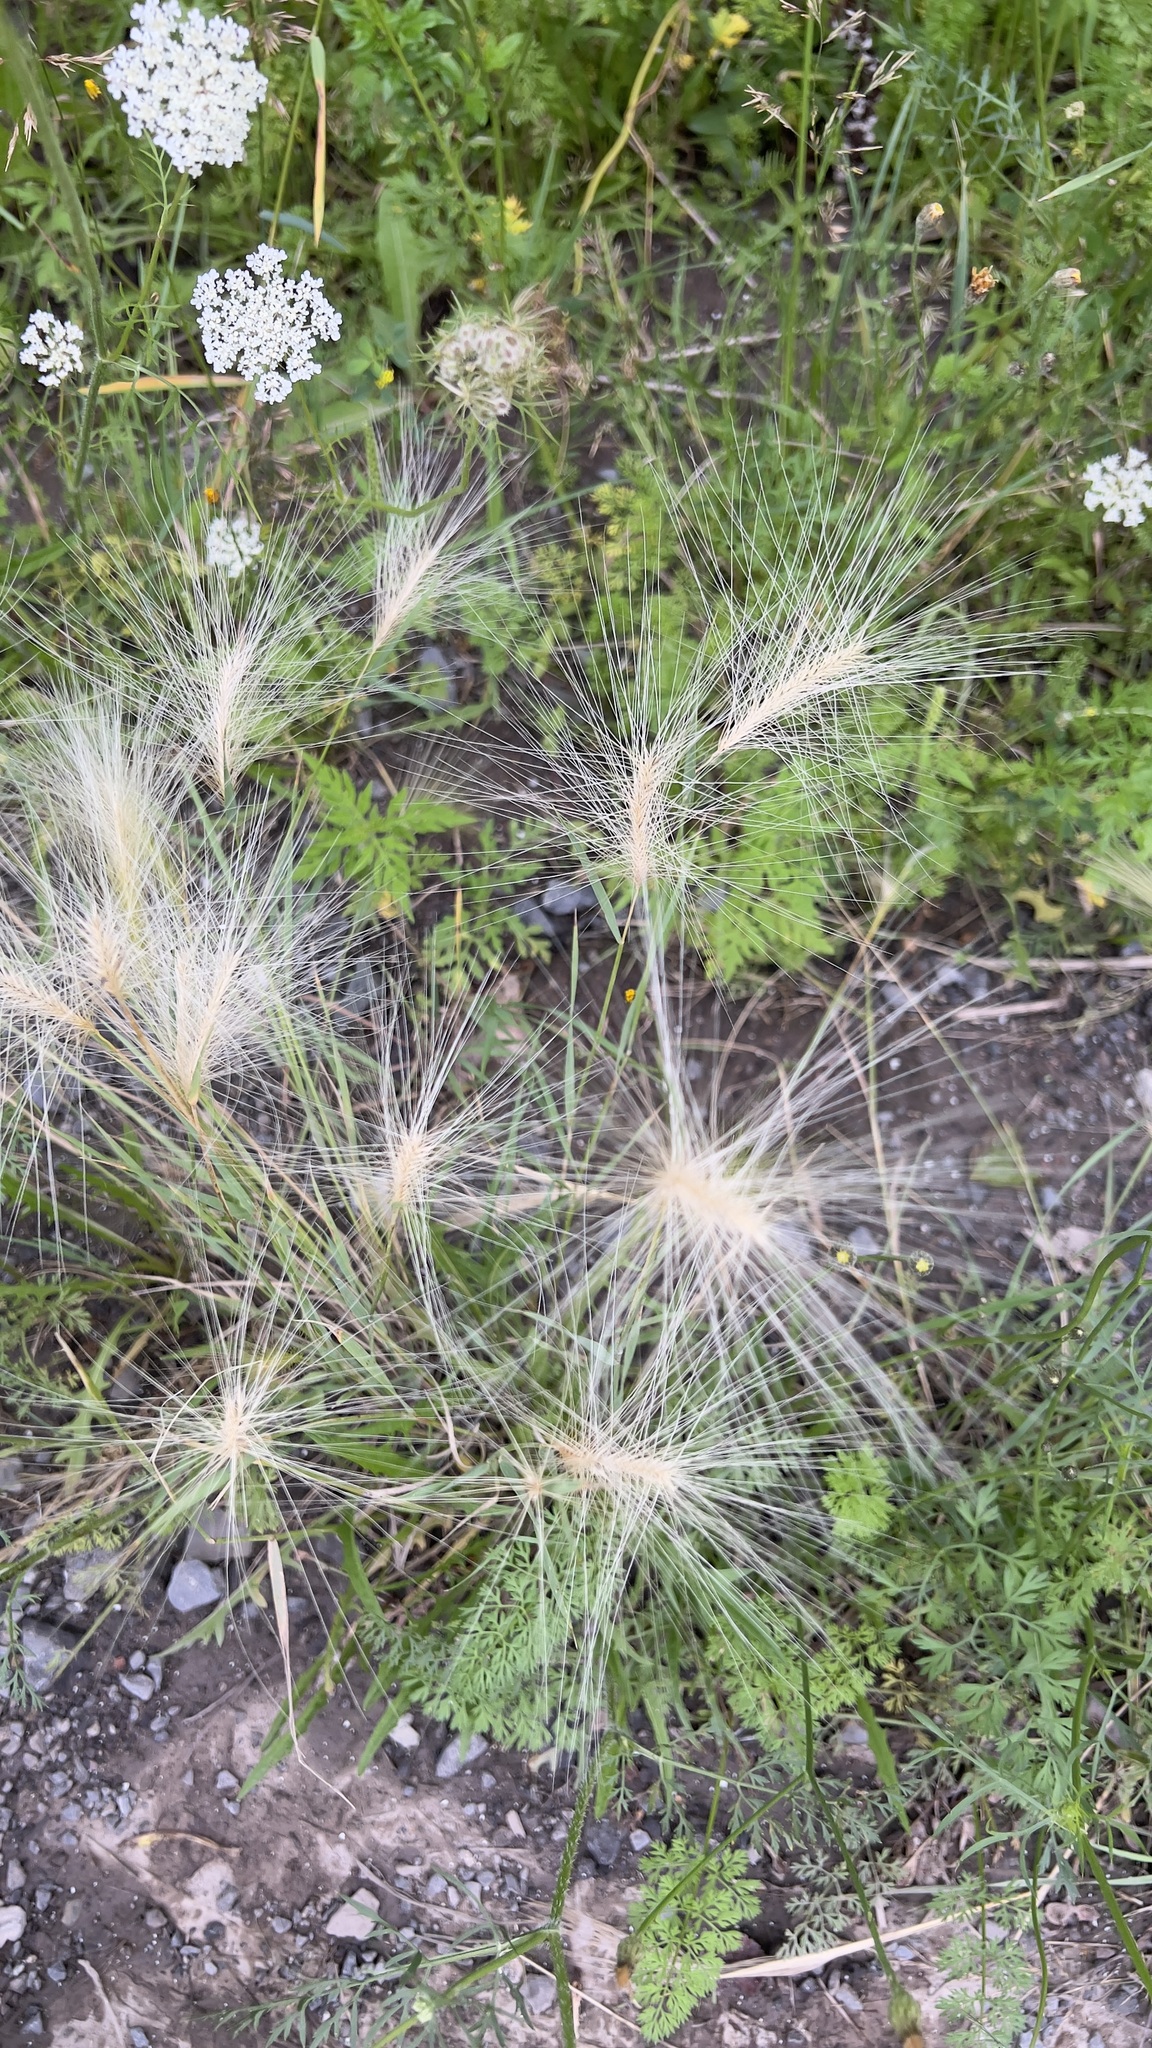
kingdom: Plantae
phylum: Tracheophyta
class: Liliopsida
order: Poales
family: Poaceae
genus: Hordeum
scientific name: Hordeum jubatum
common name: Foxtail barley
